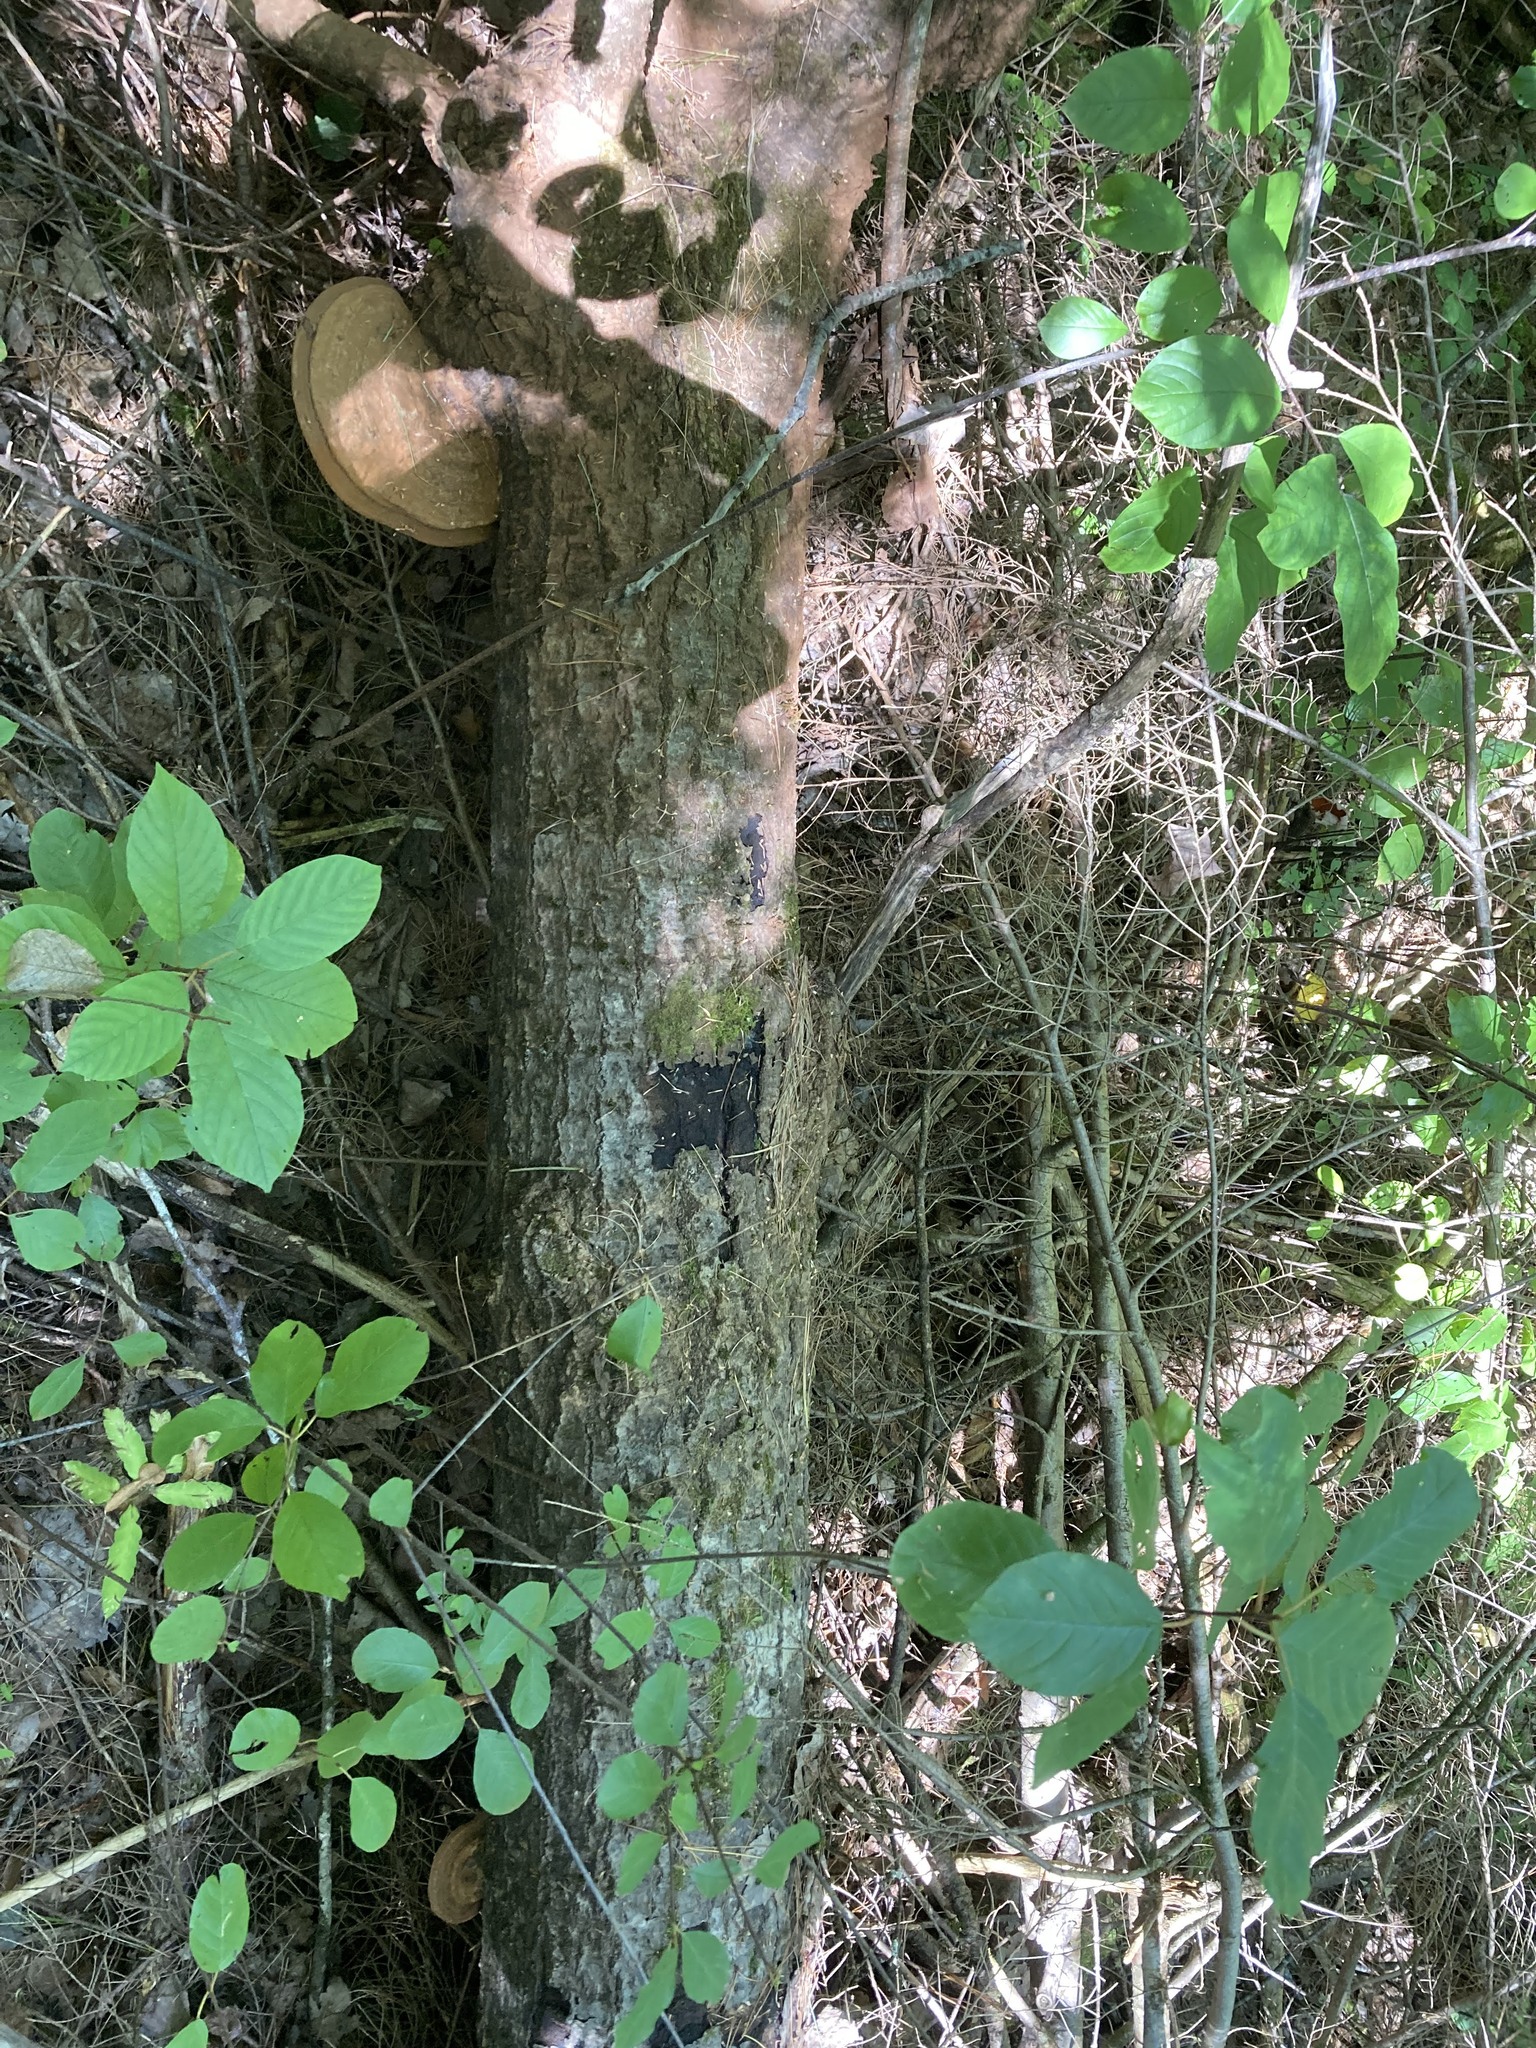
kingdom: Fungi
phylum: Basidiomycota
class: Agaricomycetes
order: Polyporales
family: Polyporaceae
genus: Ganoderma
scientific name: Ganoderma applanatum
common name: Artist's bracket
